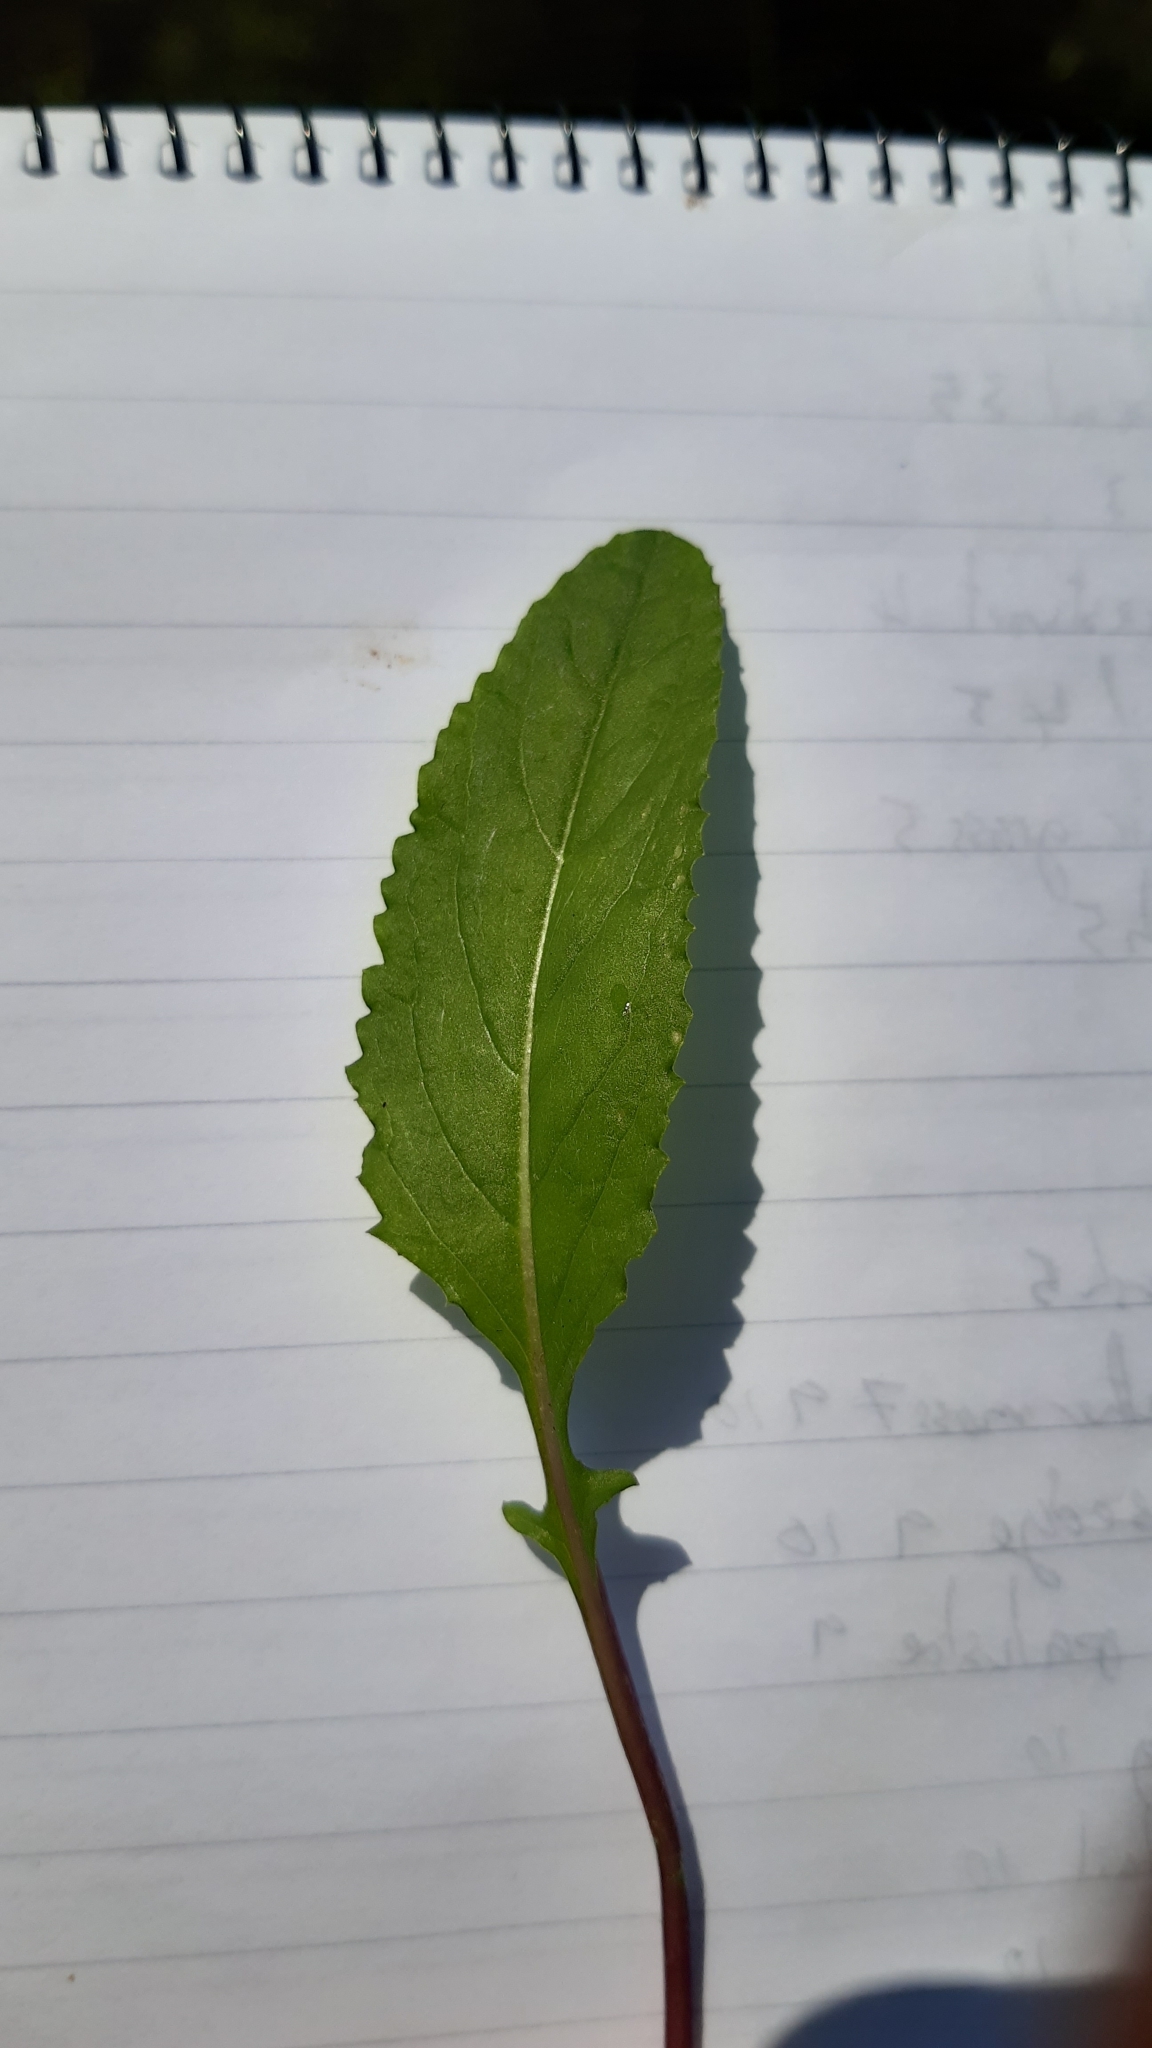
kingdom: Plantae
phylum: Tracheophyta
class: Magnoliopsida
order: Asterales
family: Asteraceae
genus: Jacobaea
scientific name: Jacobaea aquatica
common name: Water ragwort
